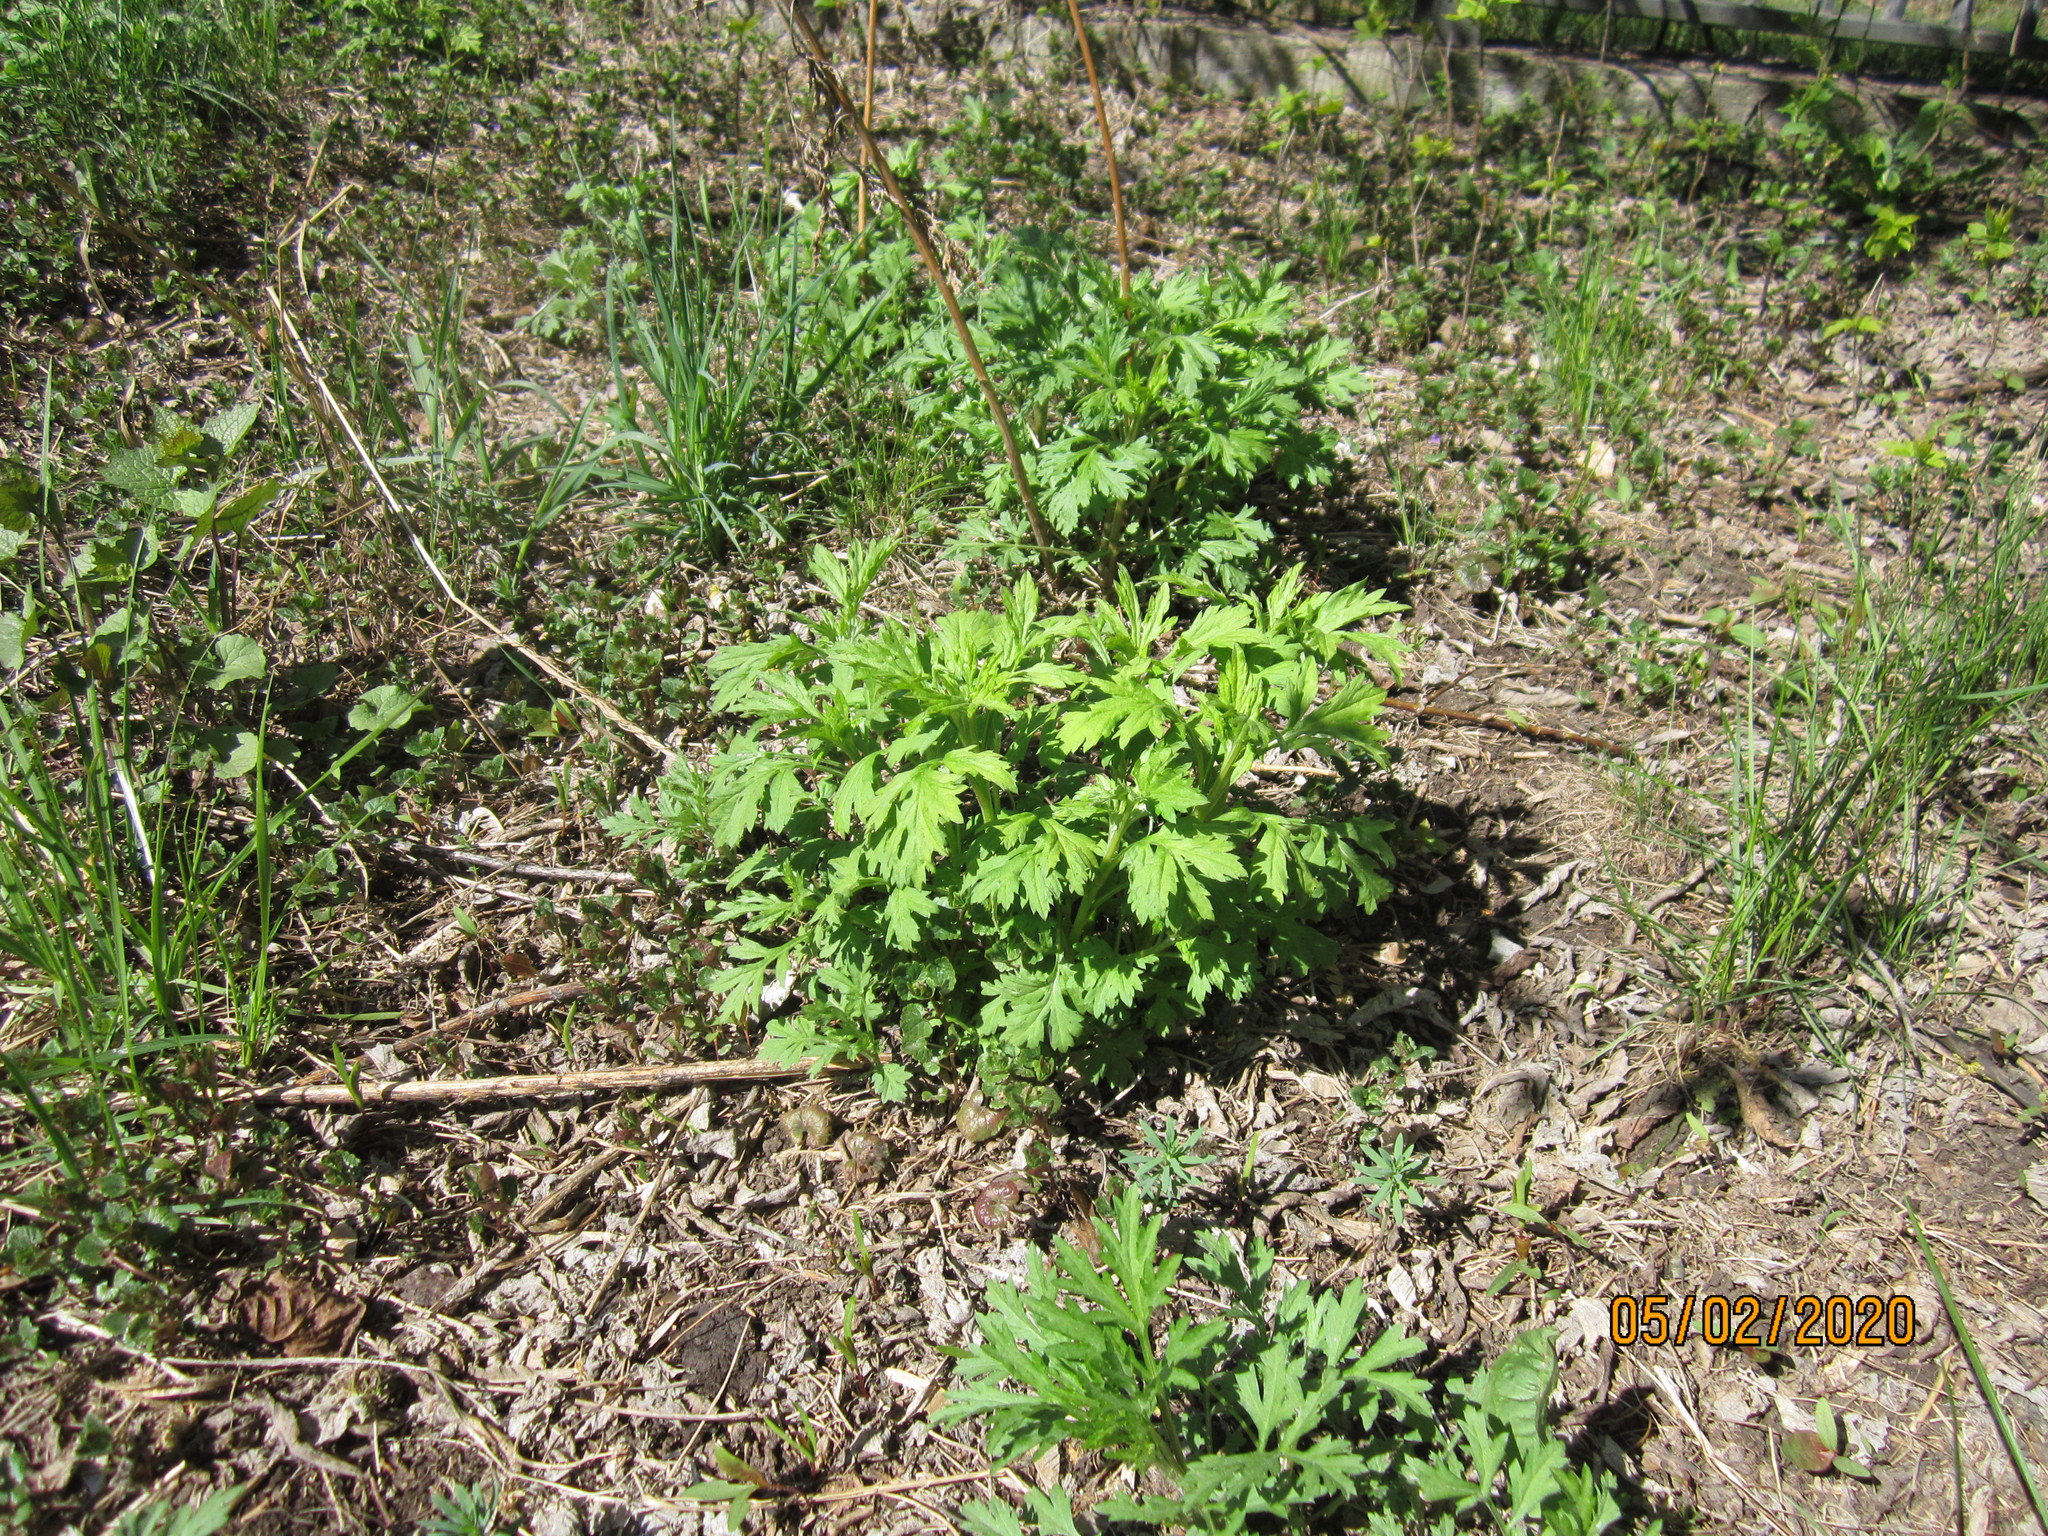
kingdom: Plantae
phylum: Tracheophyta
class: Magnoliopsida
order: Asterales
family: Asteraceae
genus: Artemisia
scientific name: Artemisia vulgaris
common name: Mugwort
